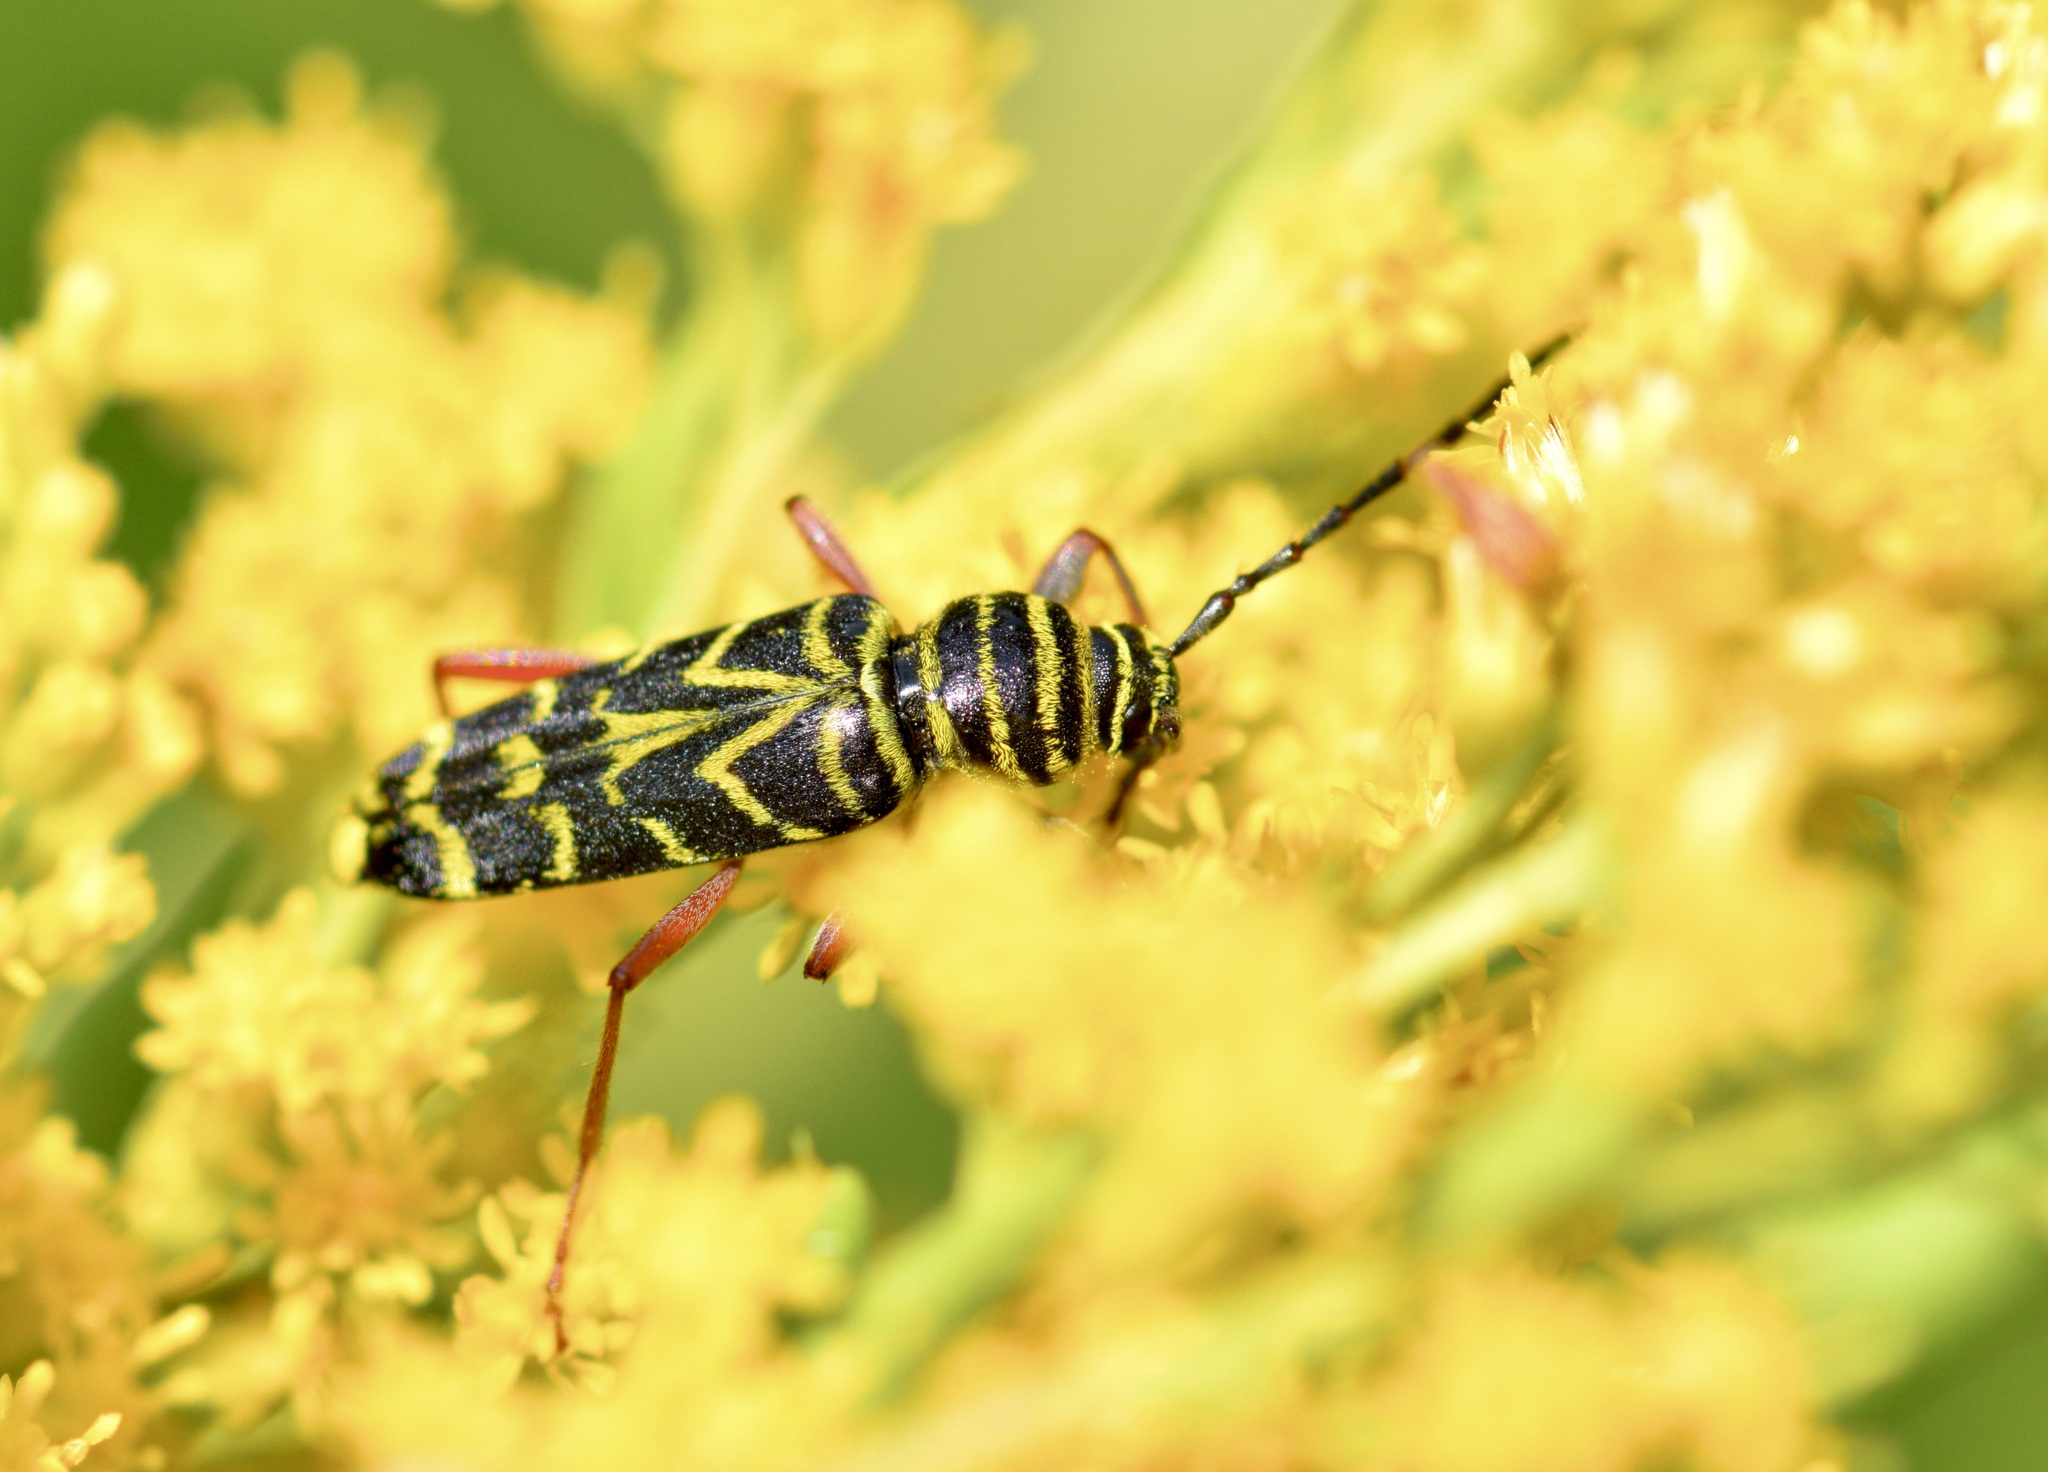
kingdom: Animalia
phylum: Arthropoda
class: Insecta
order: Coleoptera
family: Cerambycidae
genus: Megacyllene
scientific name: Megacyllene robiniae
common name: Locust borer
